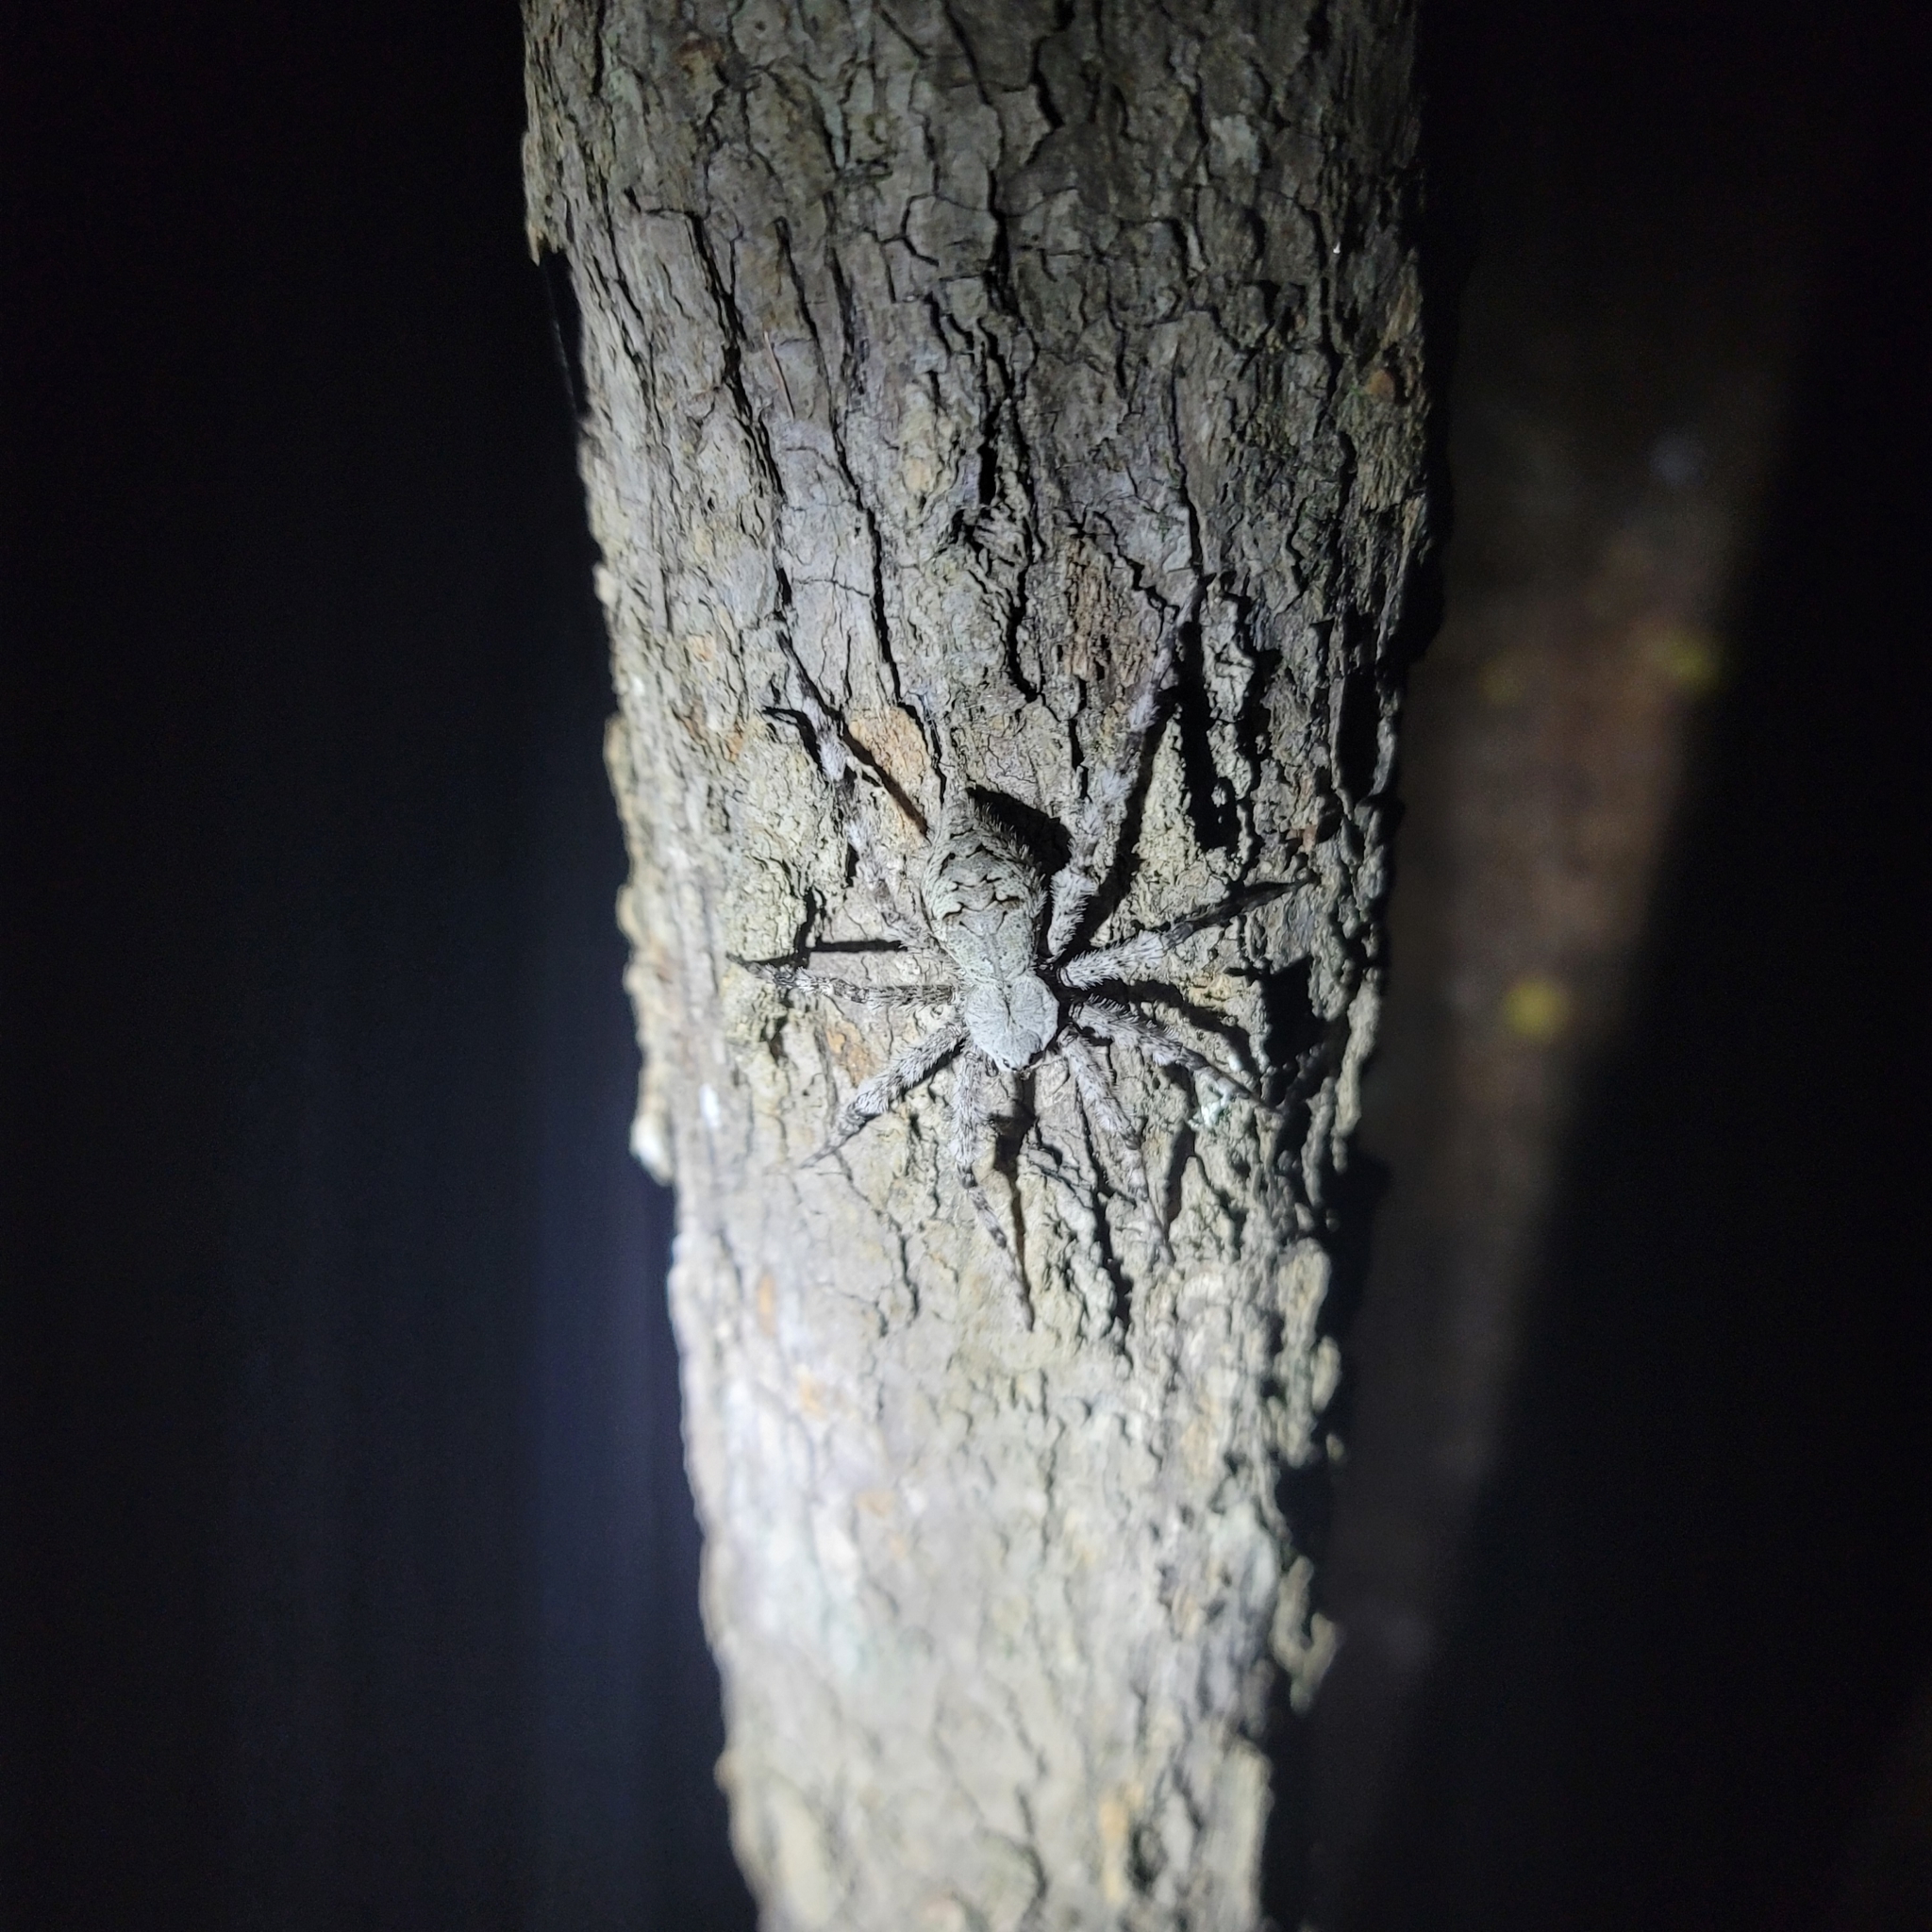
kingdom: Animalia
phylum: Arthropoda
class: Arachnida
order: Araneae
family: Pisauridae
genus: Dolomedes
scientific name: Dolomedes albineus
